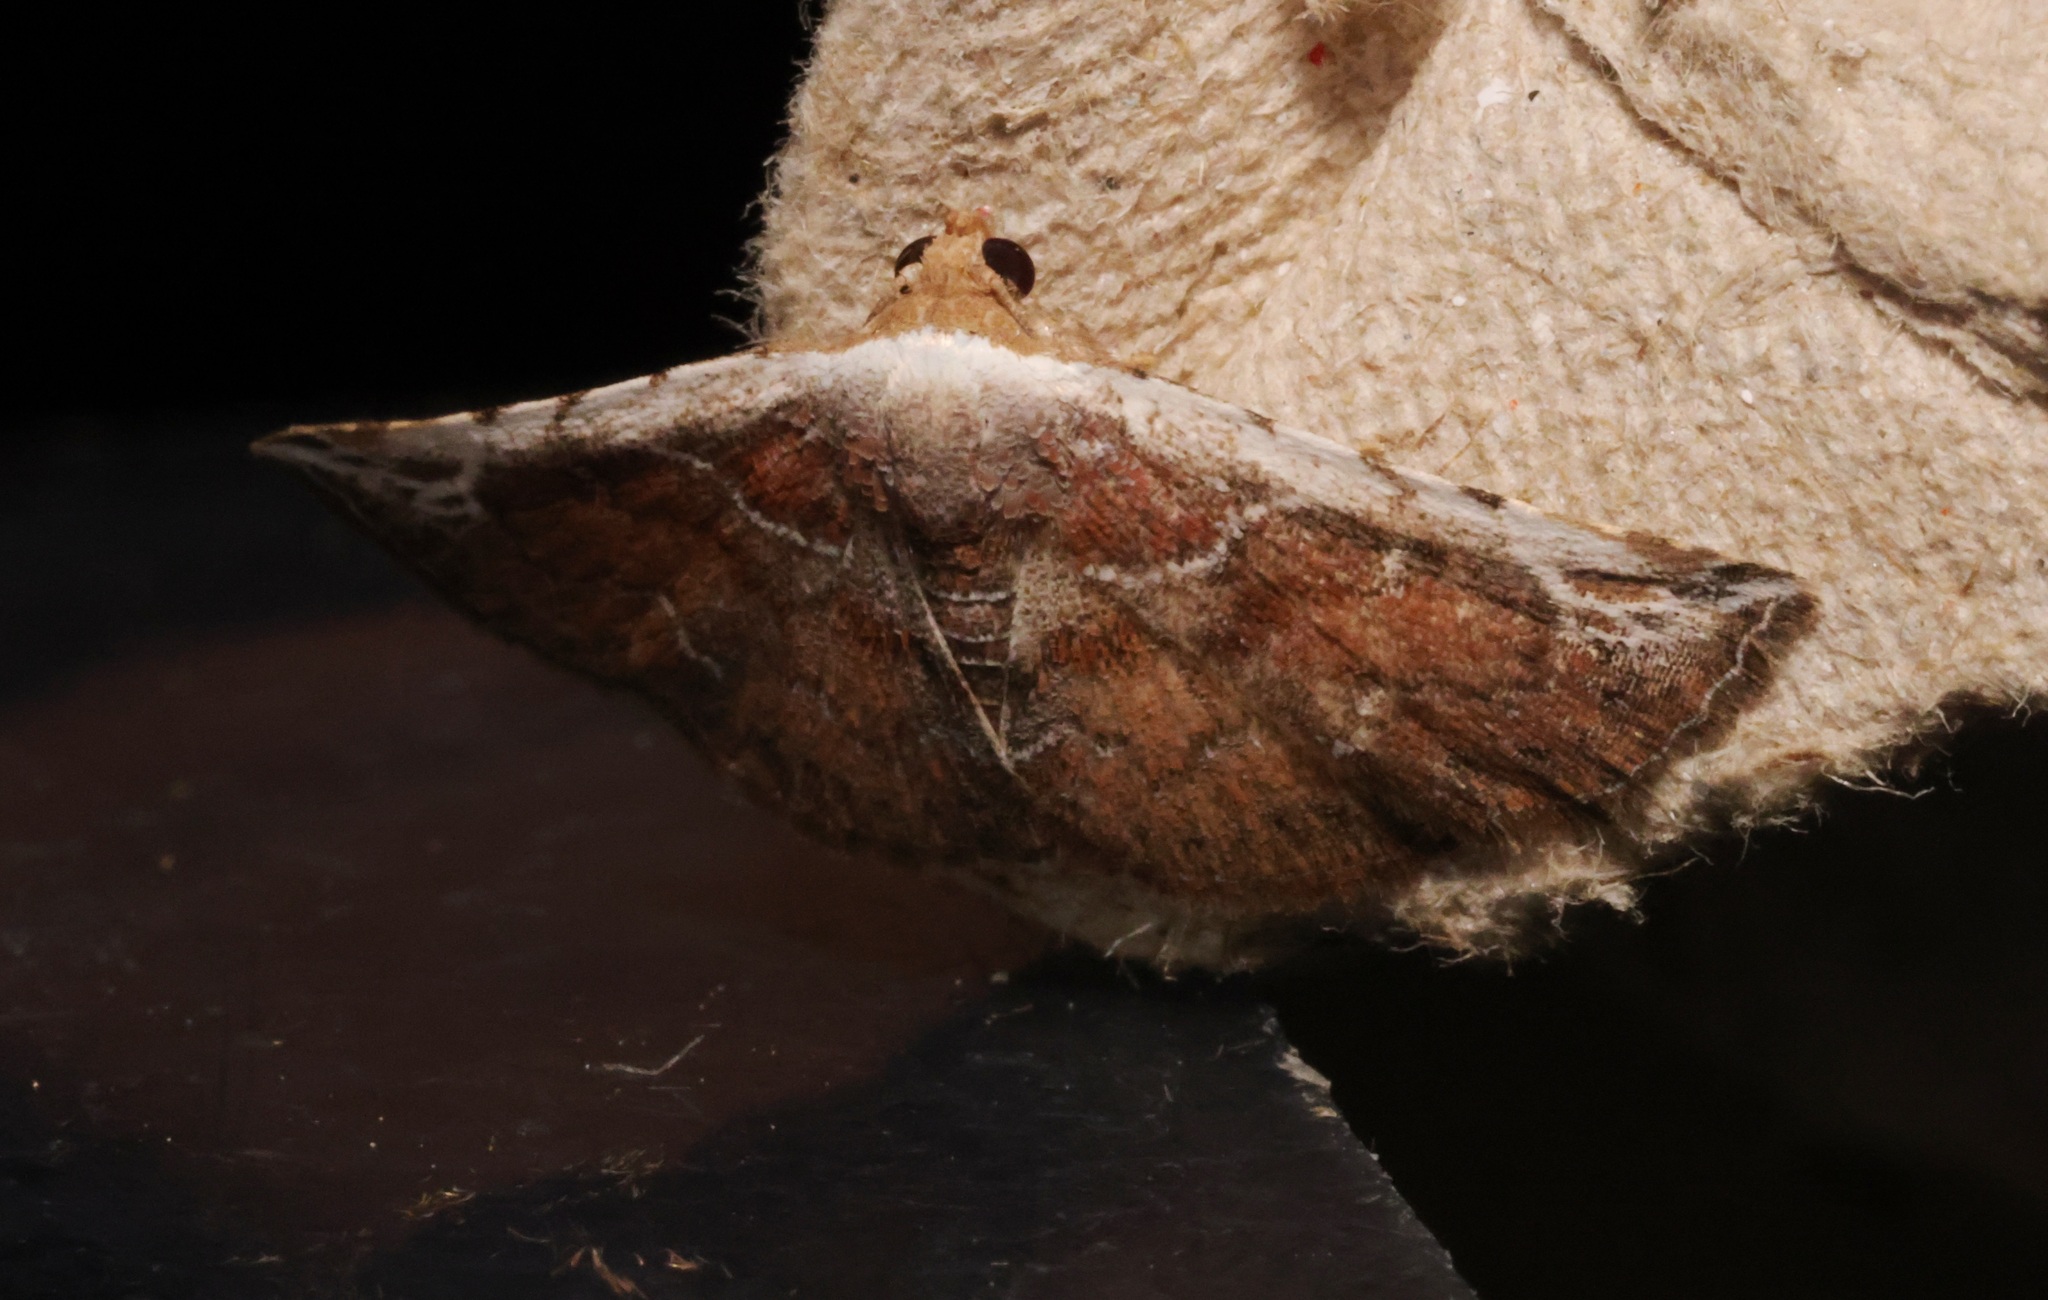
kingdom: Animalia
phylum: Arthropoda
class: Insecta
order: Lepidoptera
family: Noctuidae
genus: Eublemma
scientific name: Eublemma albostriata
